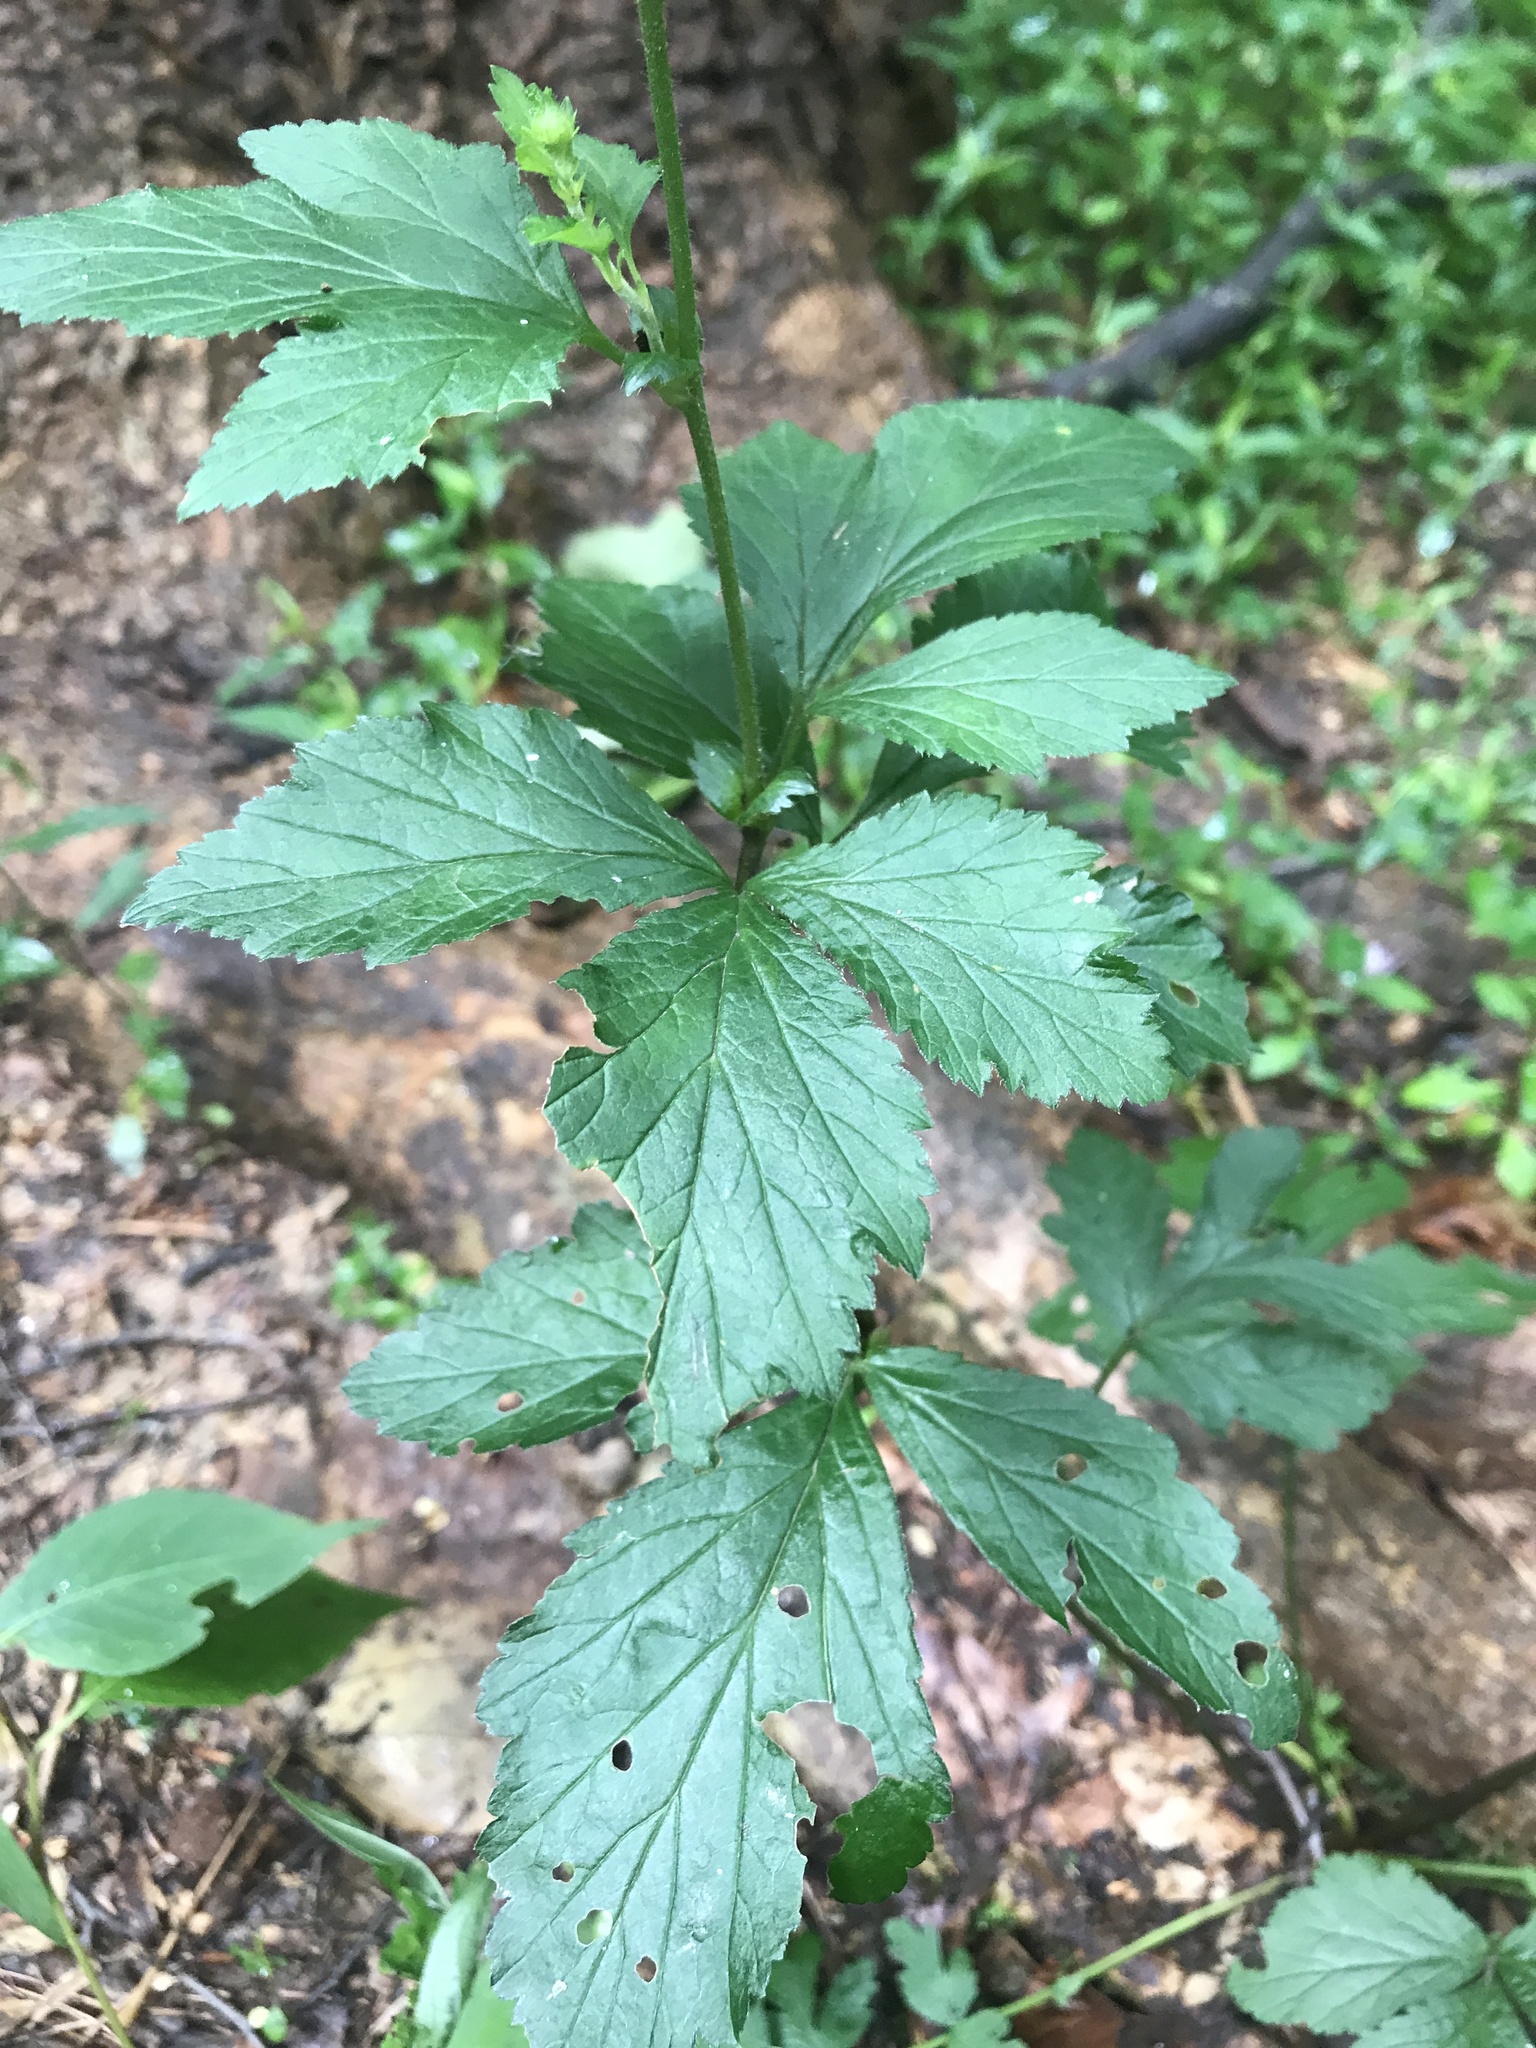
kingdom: Plantae
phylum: Tracheophyta
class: Magnoliopsida
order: Rosales
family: Rosaceae
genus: Geum
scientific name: Geum canadense
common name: White avens
